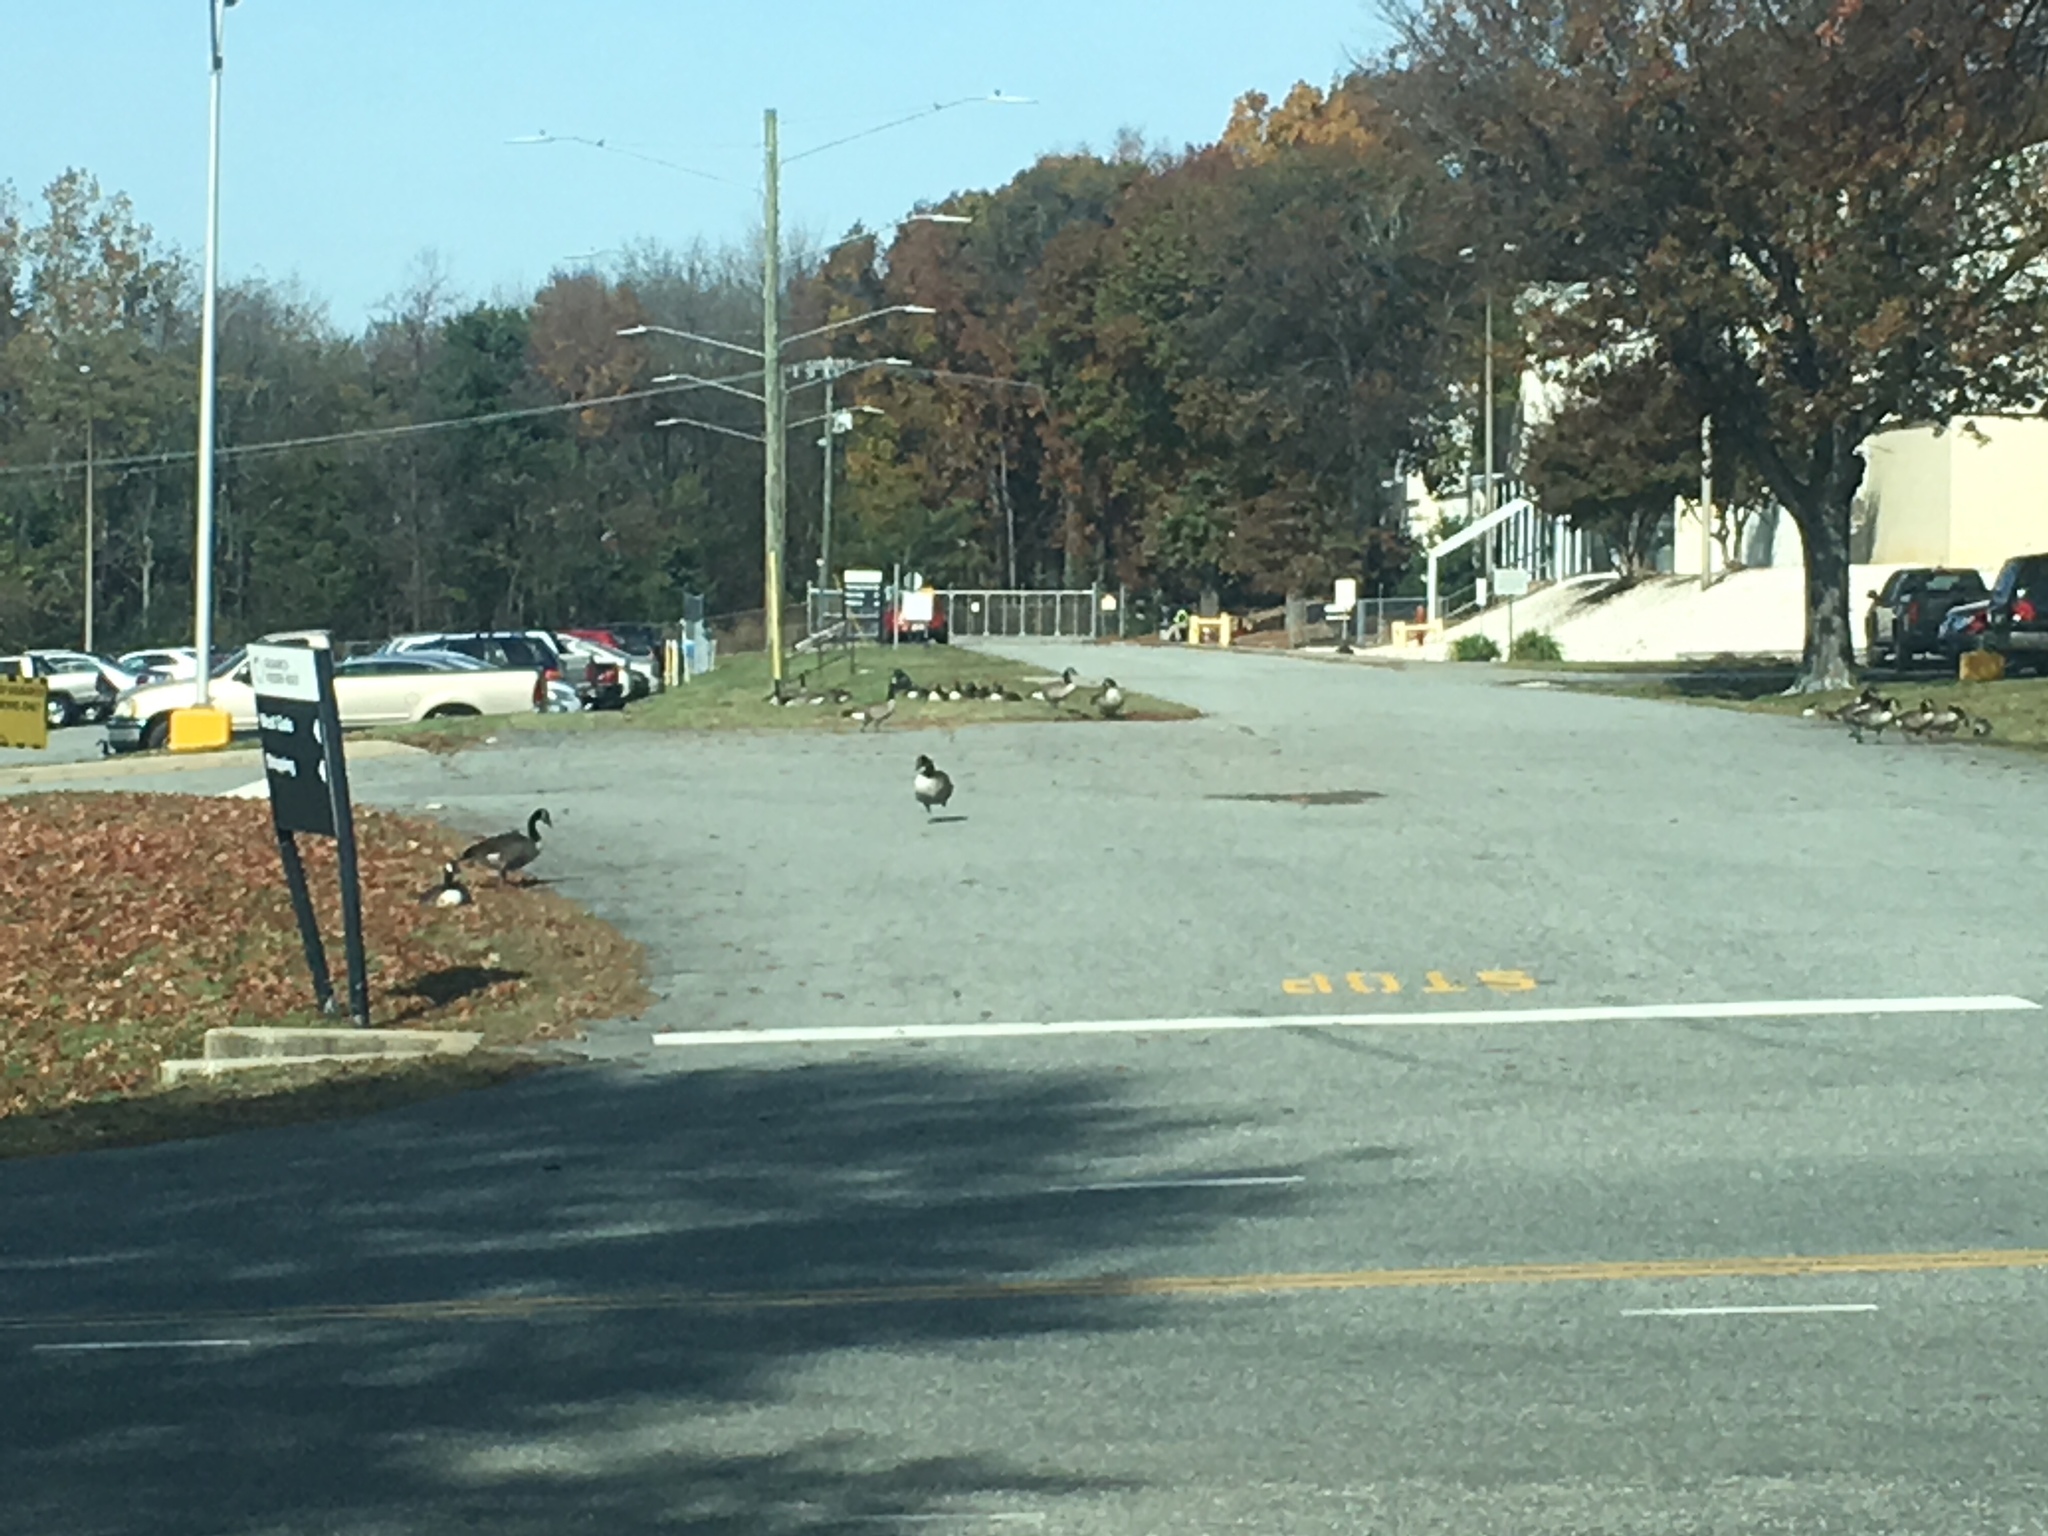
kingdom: Animalia
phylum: Chordata
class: Aves
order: Anseriformes
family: Anatidae
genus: Branta
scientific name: Branta canadensis
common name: Canada goose
